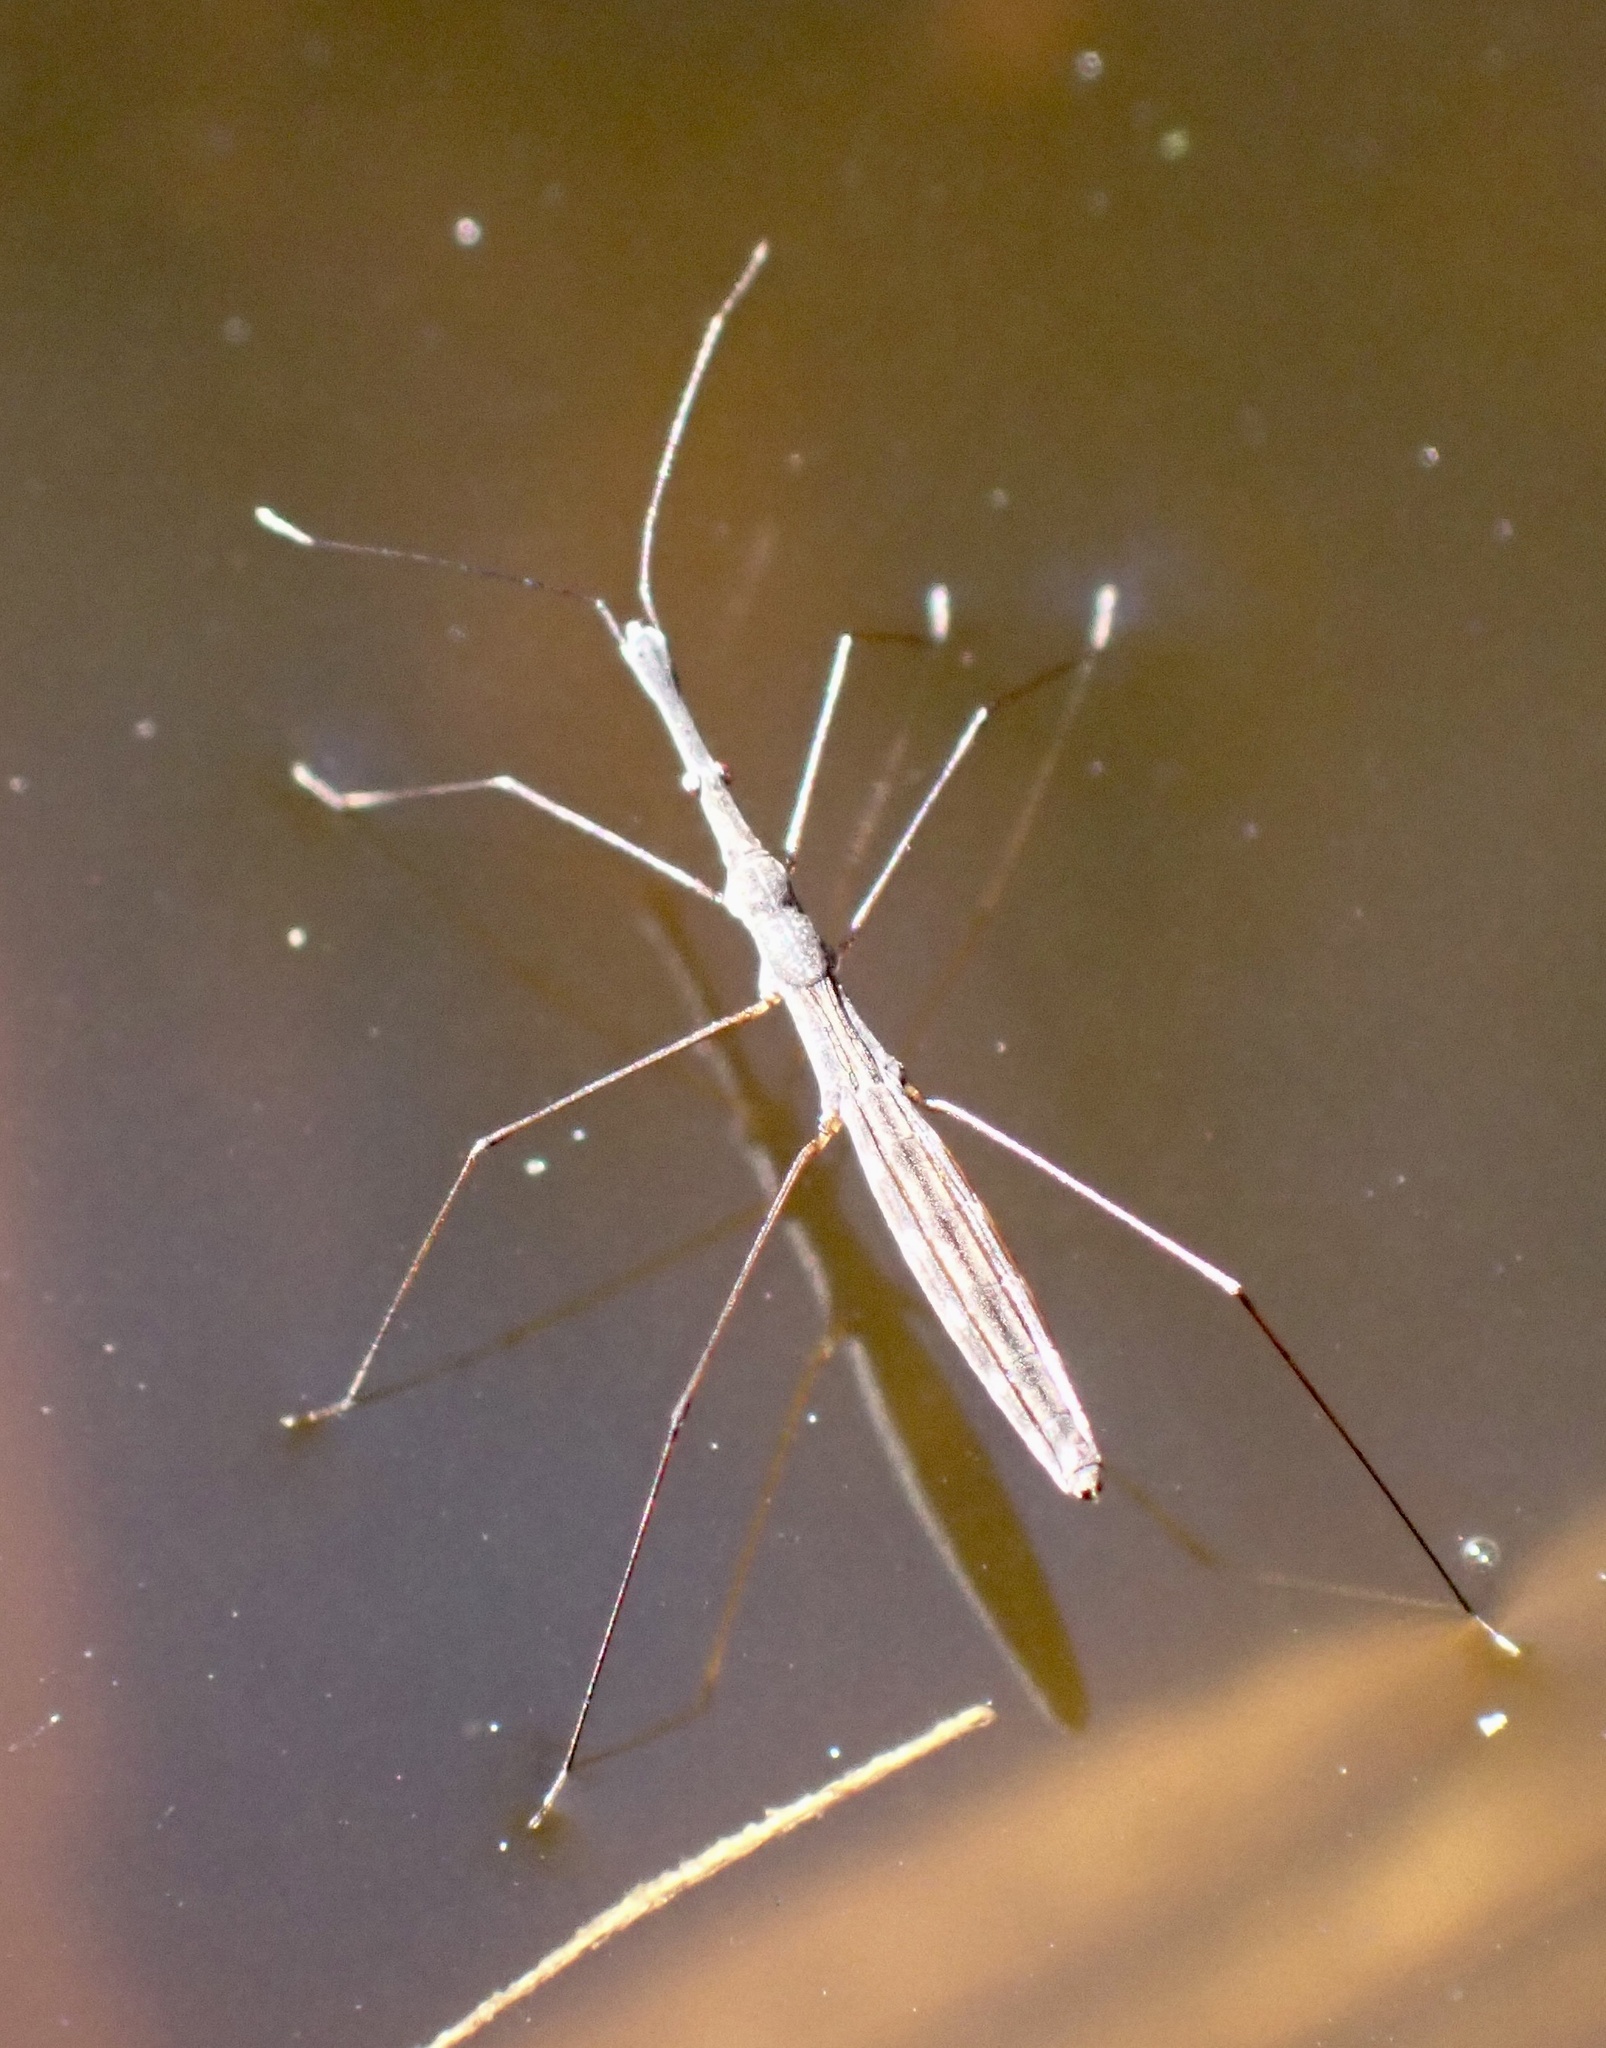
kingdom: Animalia
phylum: Arthropoda
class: Insecta
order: Hemiptera
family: Hydrometridae
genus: Hydrometra
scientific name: Hydrometra stagnorum
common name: Water measurer
